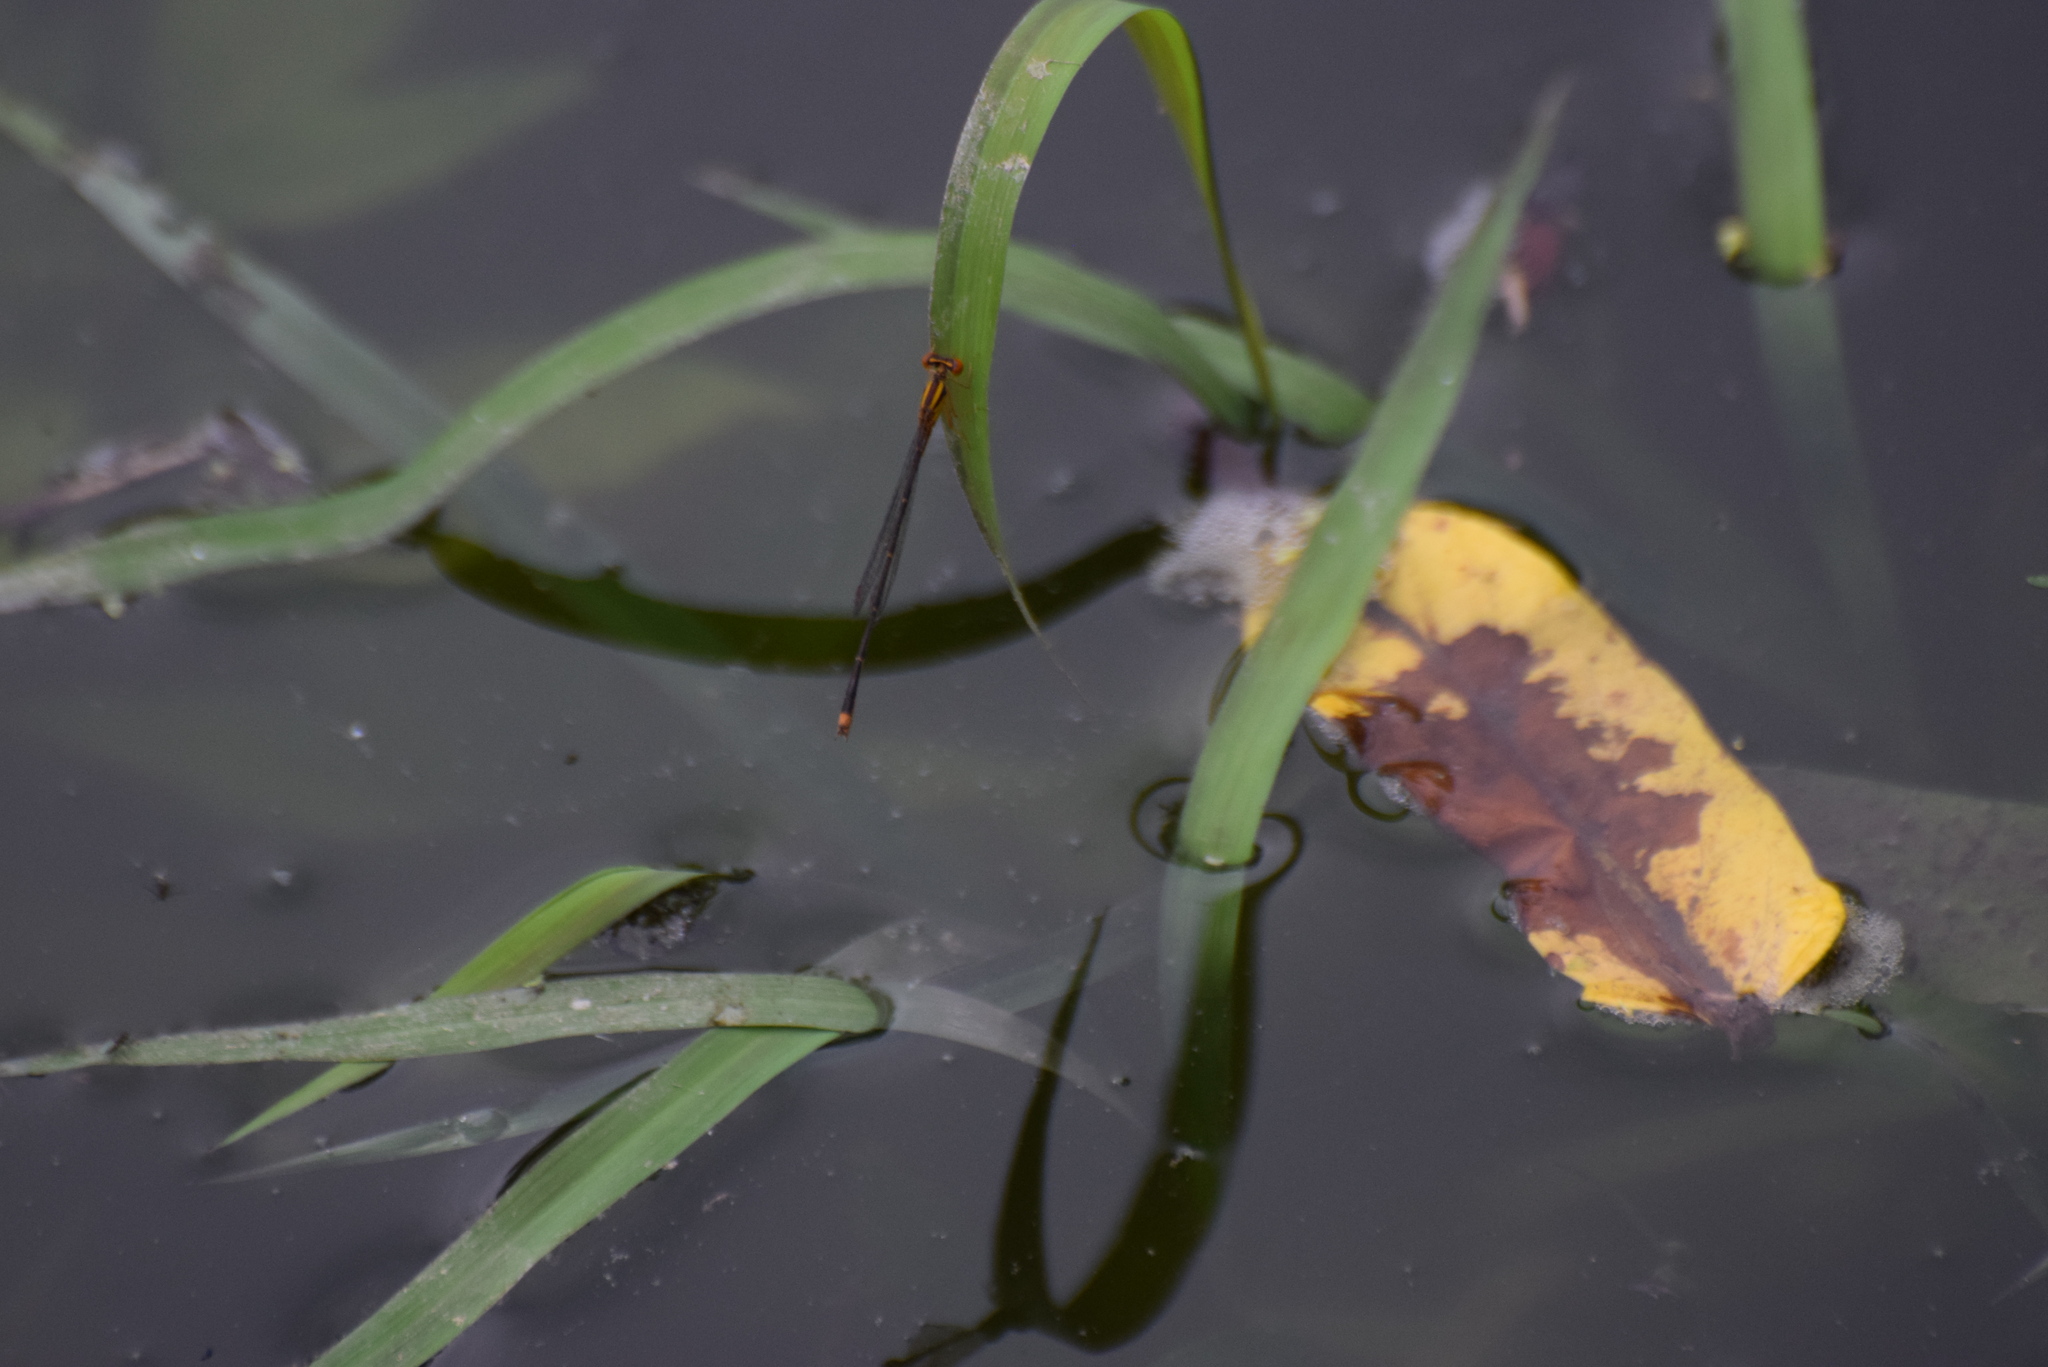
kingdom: Animalia
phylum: Arthropoda
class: Insecta
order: Odonata
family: Coenagrionidae
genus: Enallagma
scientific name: Enallagma signatum
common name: Orange bluet
